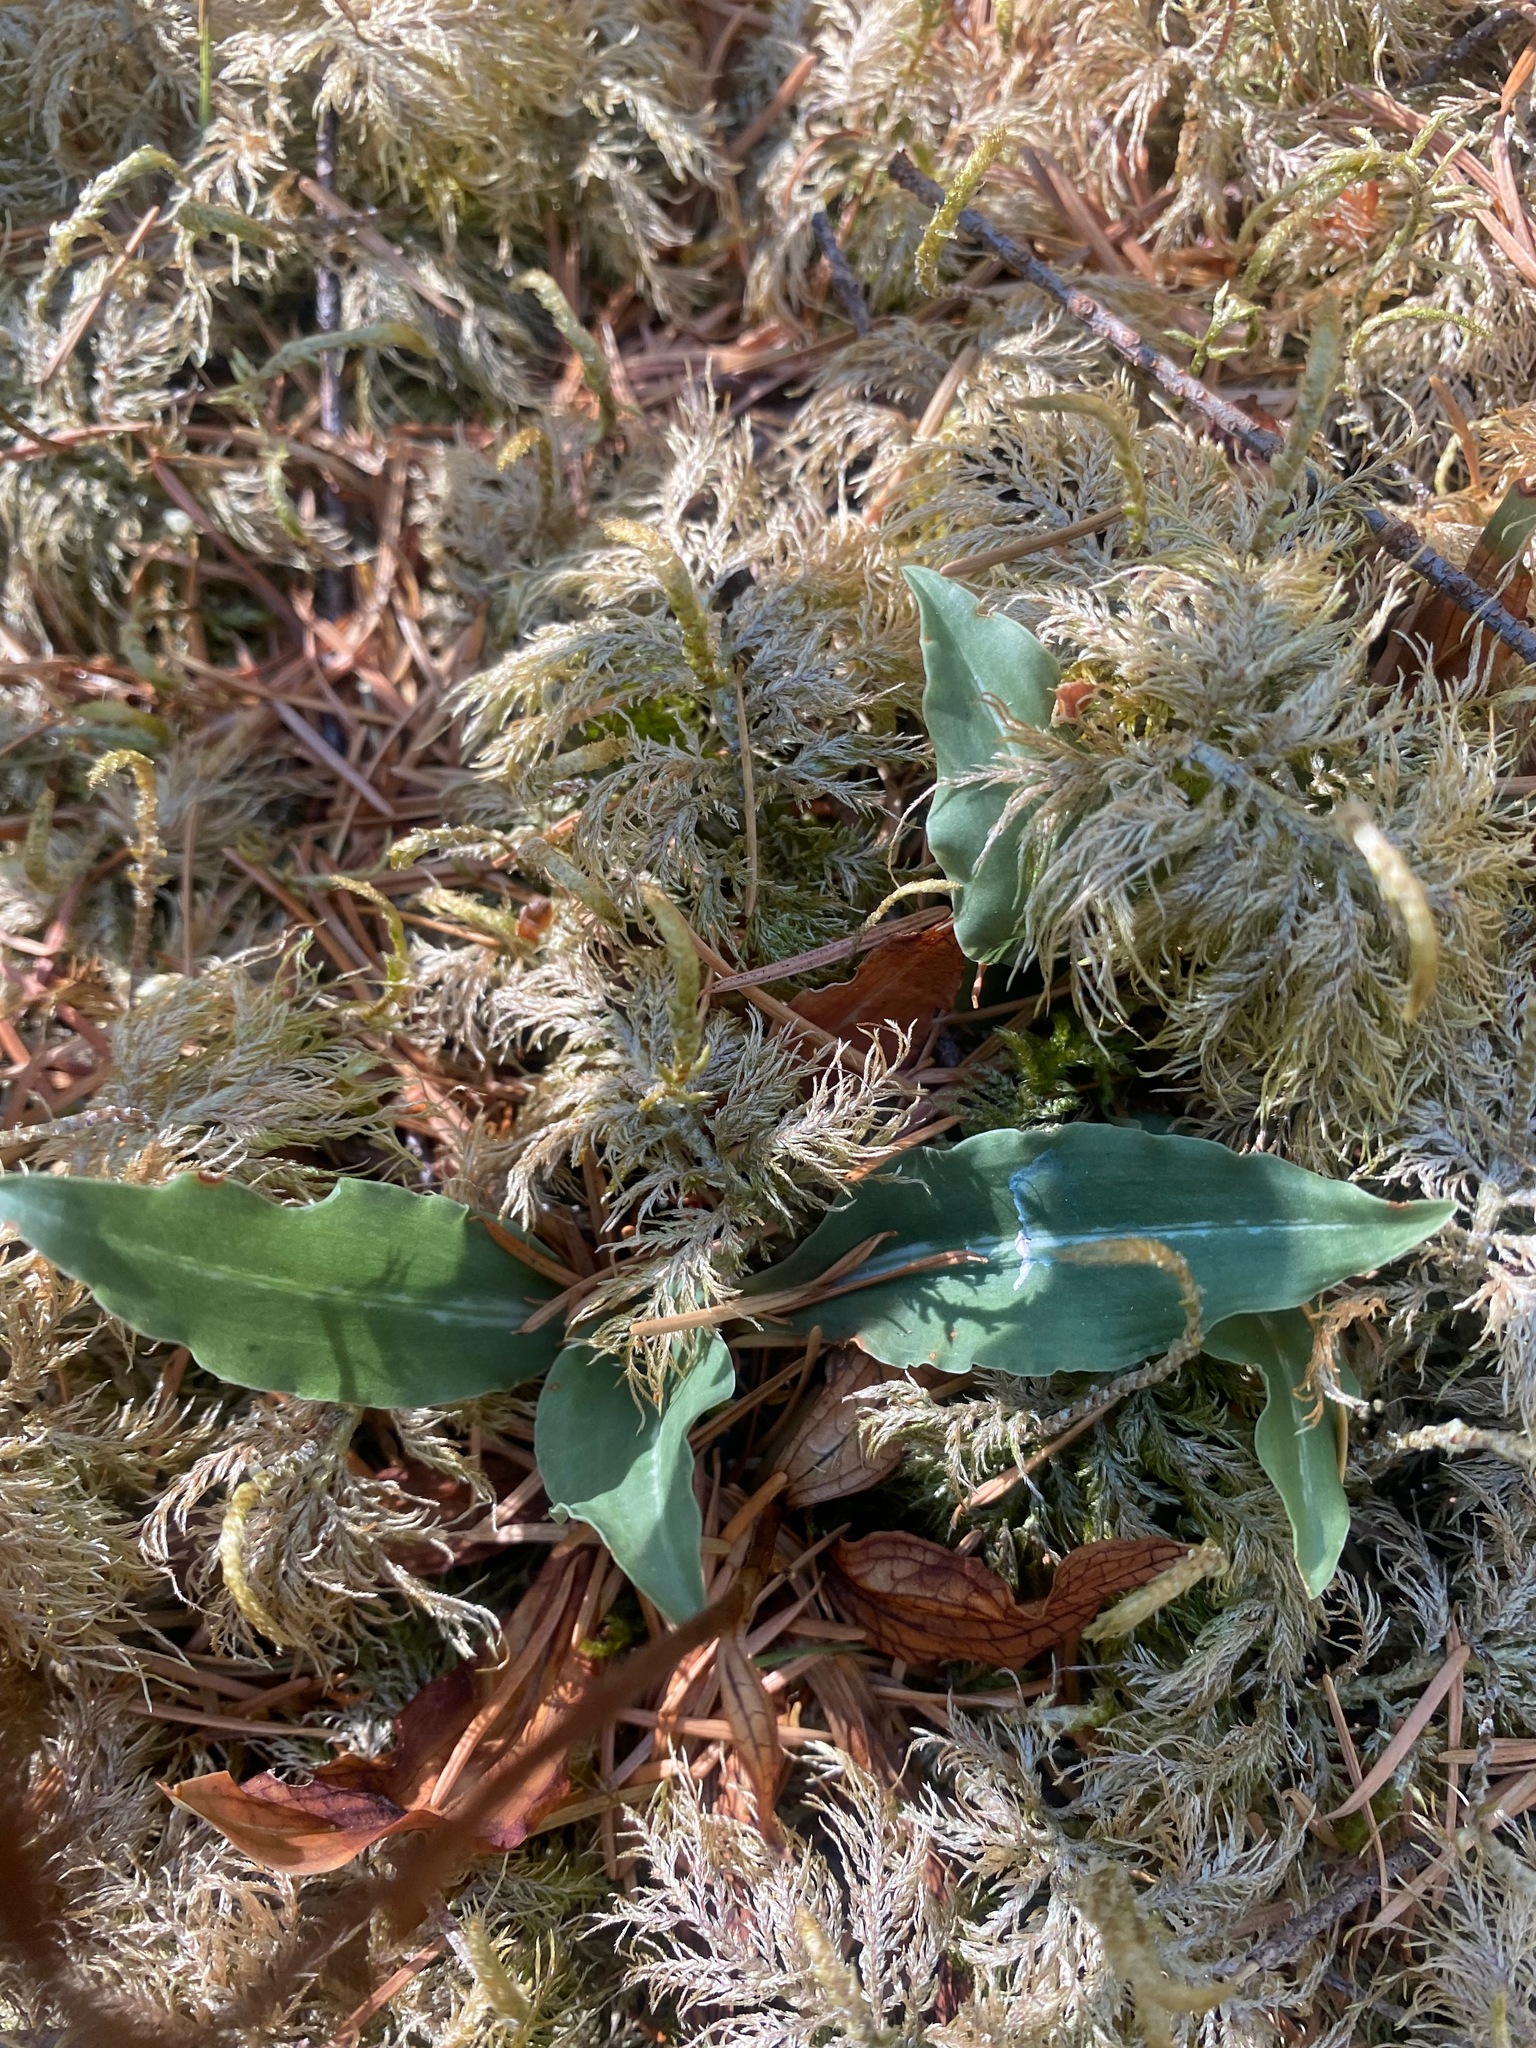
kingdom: Plantae
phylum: Tracheophyta
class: Liliopsida
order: Asparagales
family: Orchidaceae
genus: Goodyera
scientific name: Goodyera oblongifolia
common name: Giant rattlesnake-plantain
